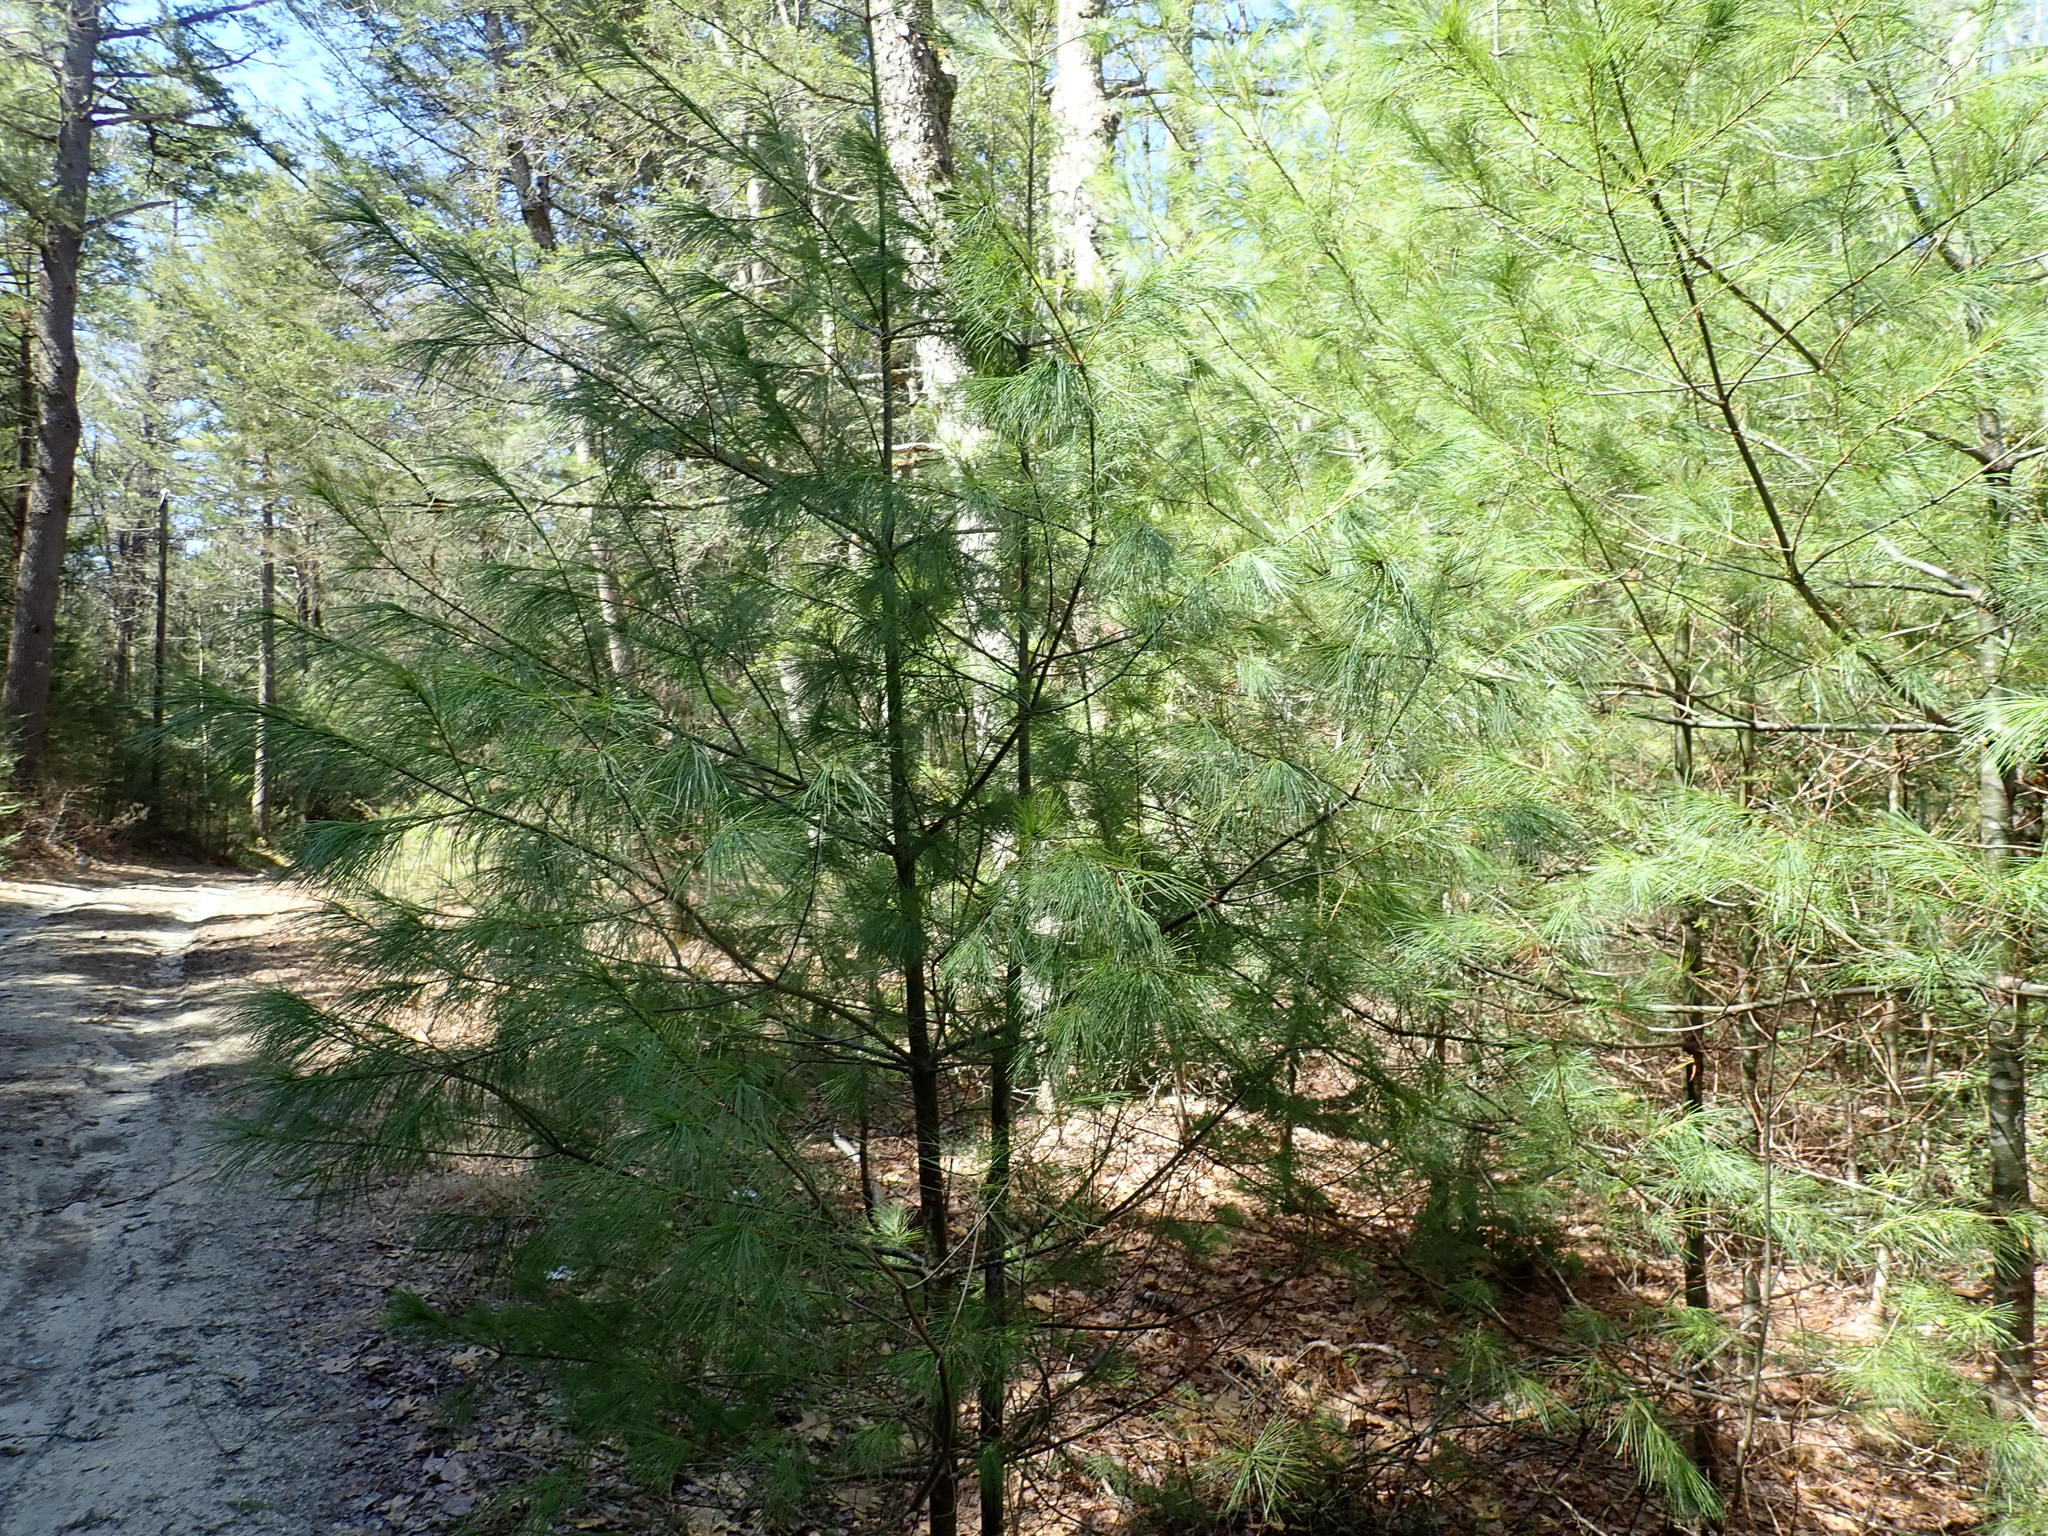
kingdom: Plantae
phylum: Tracheophyta
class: Pinopsida
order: Pinales
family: Pinaceae
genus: Pinus
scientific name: Pinus strobus
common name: Weymouth pine
